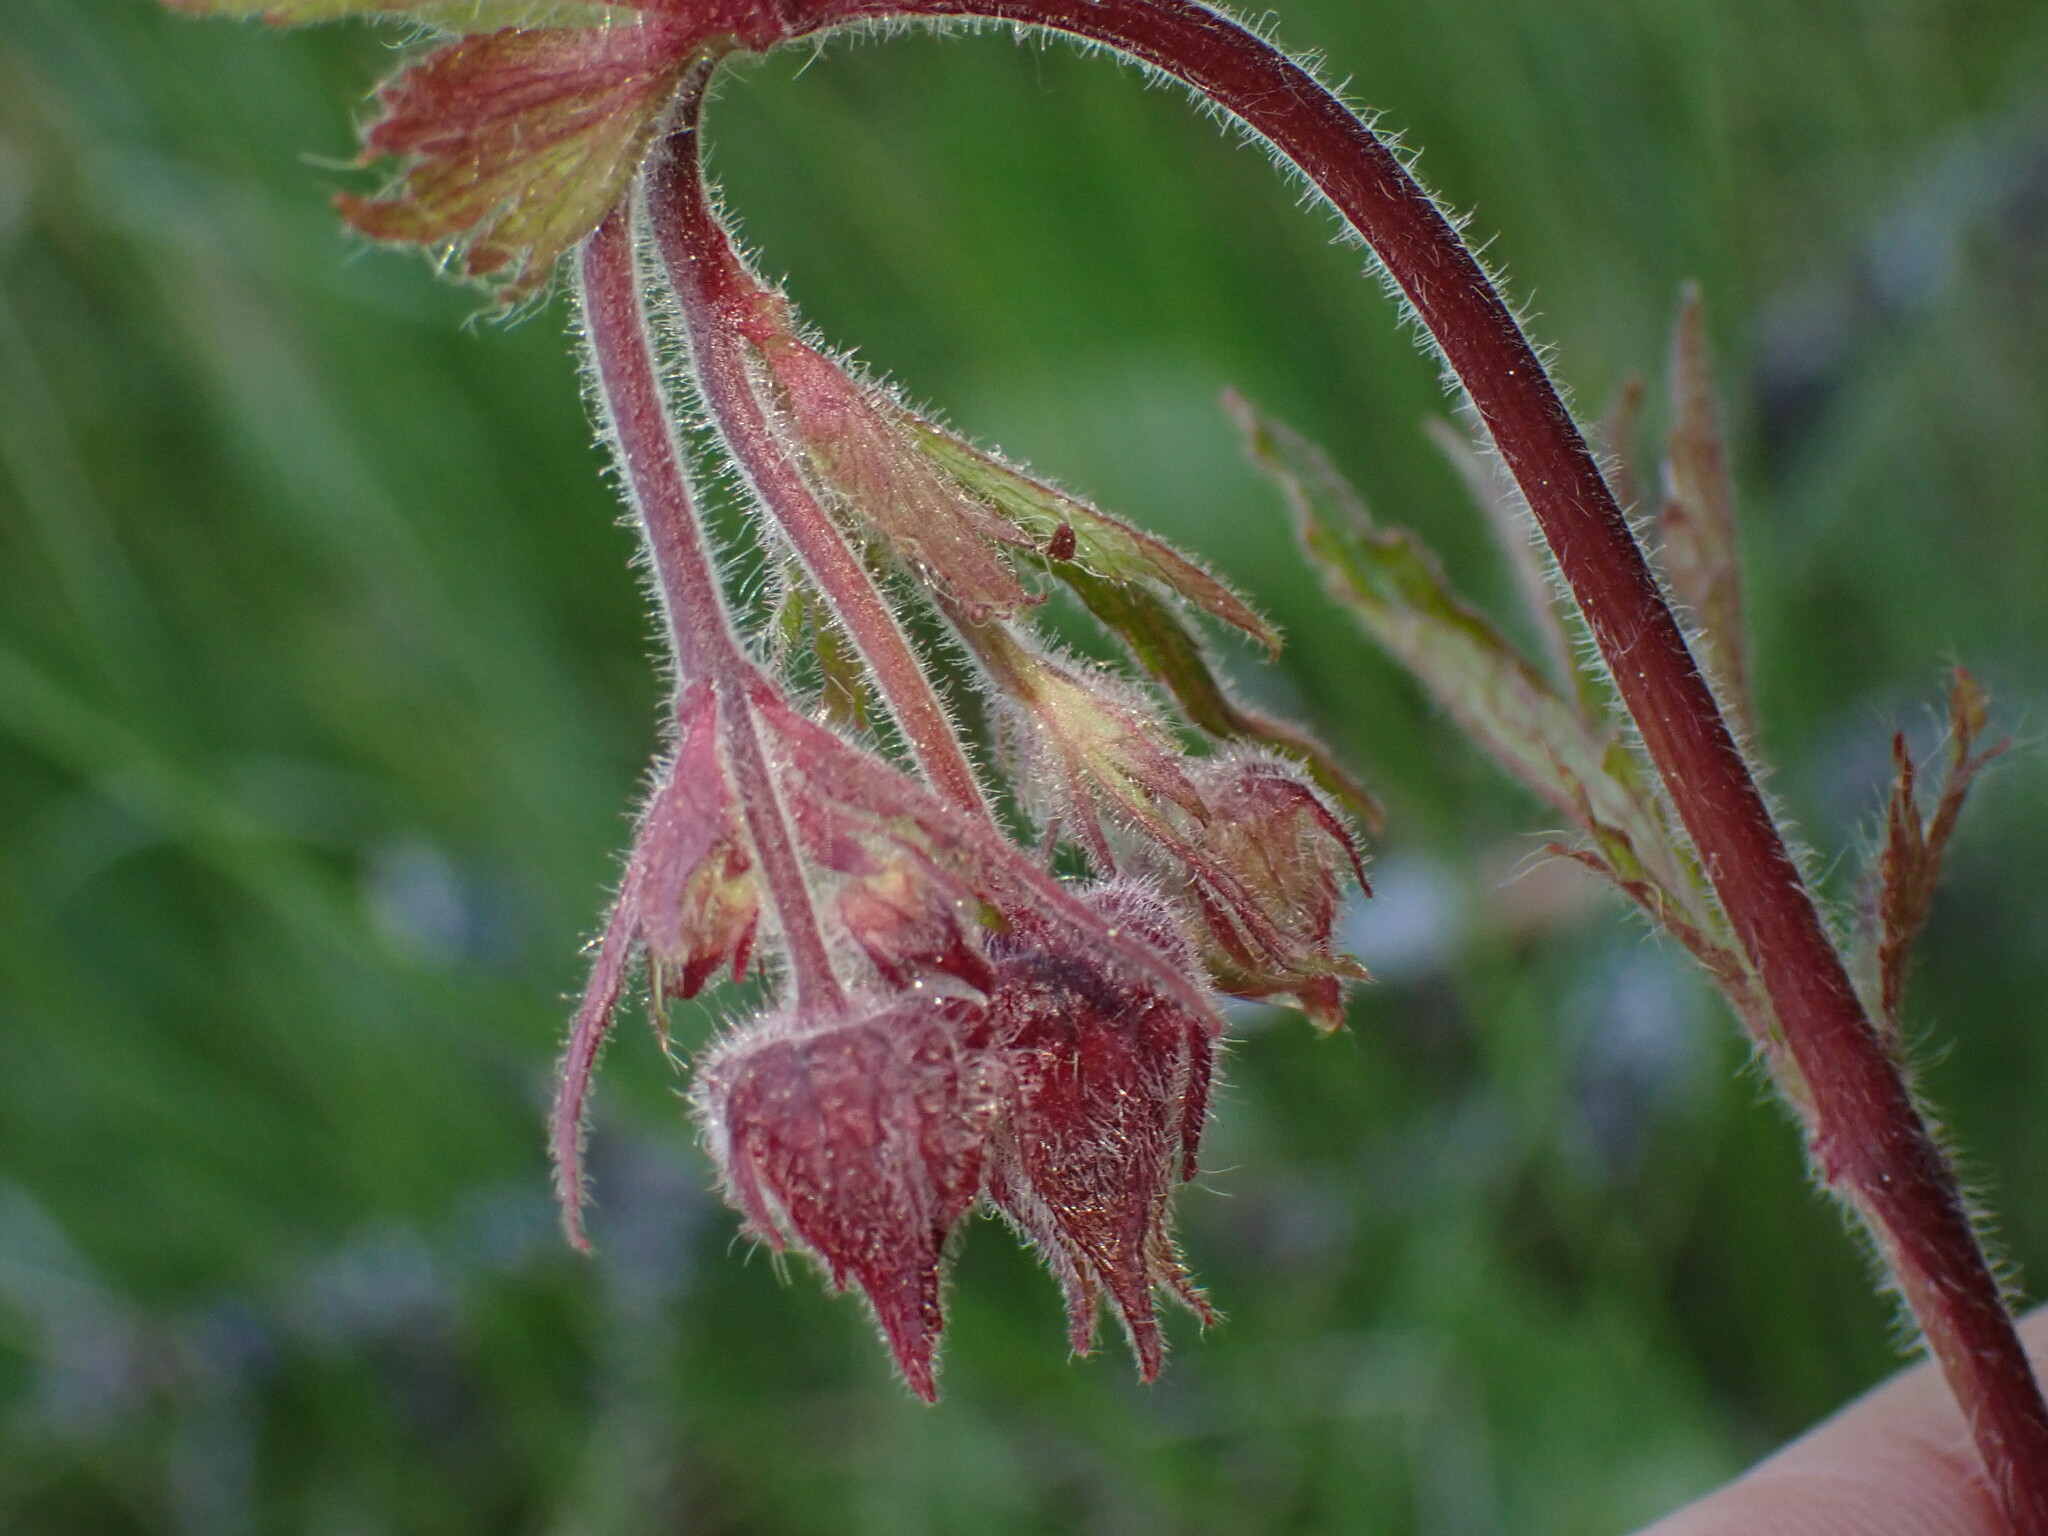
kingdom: Plantae
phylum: Tracheophyta
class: Magnoliopsida
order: Rosales
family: Rosaceae
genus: Geum
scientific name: Geum rivale
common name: Water avens
